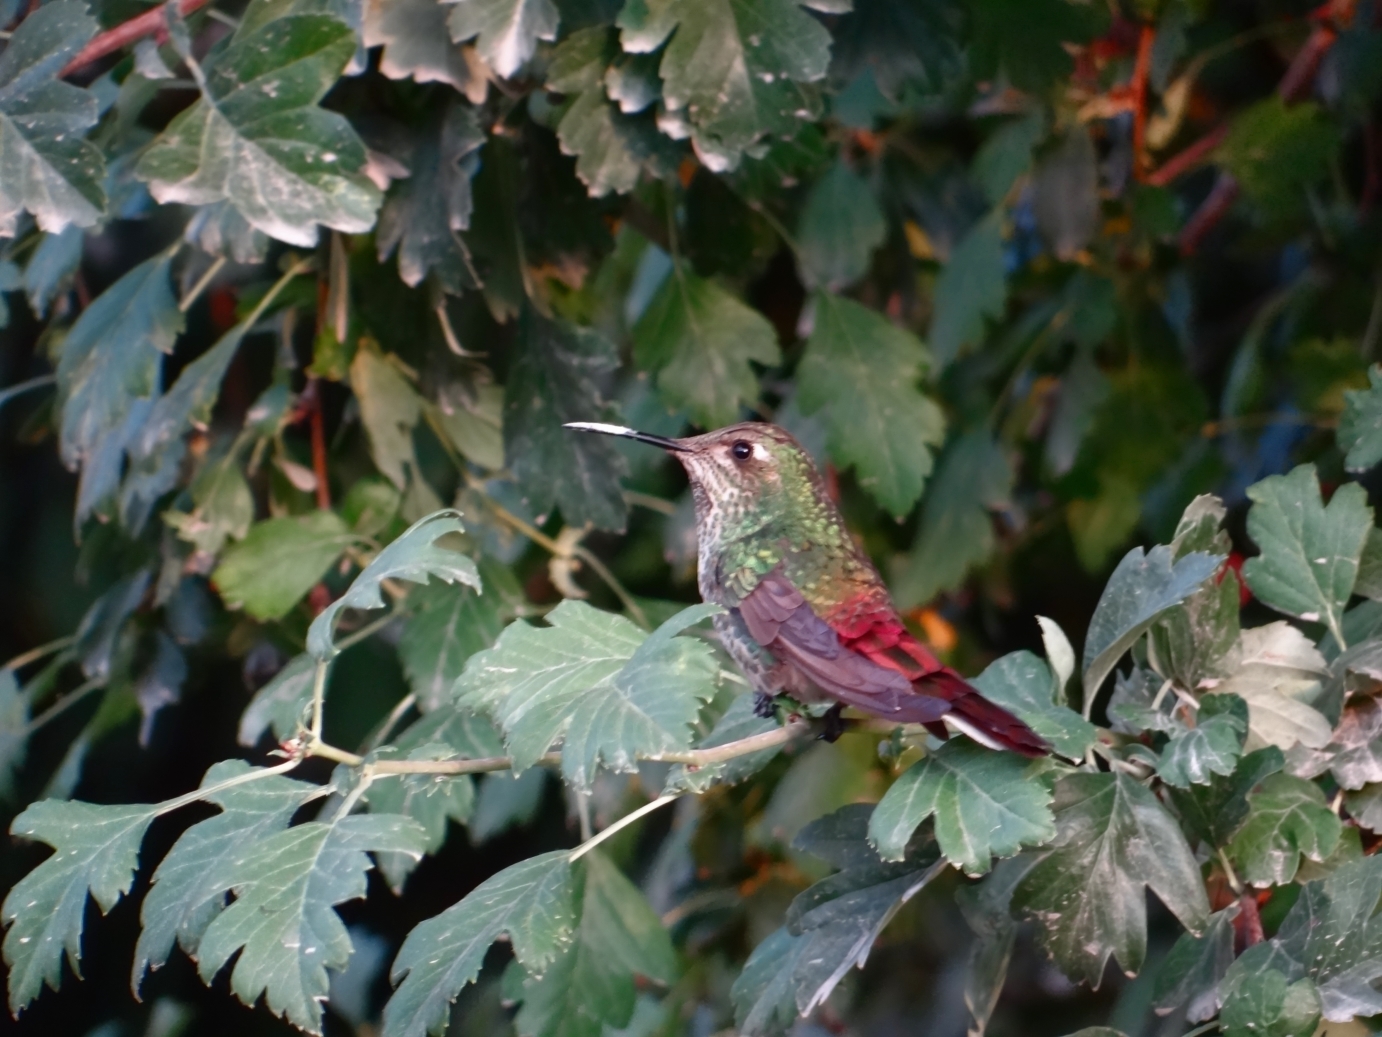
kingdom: Animalia
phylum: Chordata
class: Aves
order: Apodiformes
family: Trochilidae
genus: Sappho
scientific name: Sappho sparganurus
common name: Red-tailed comet
